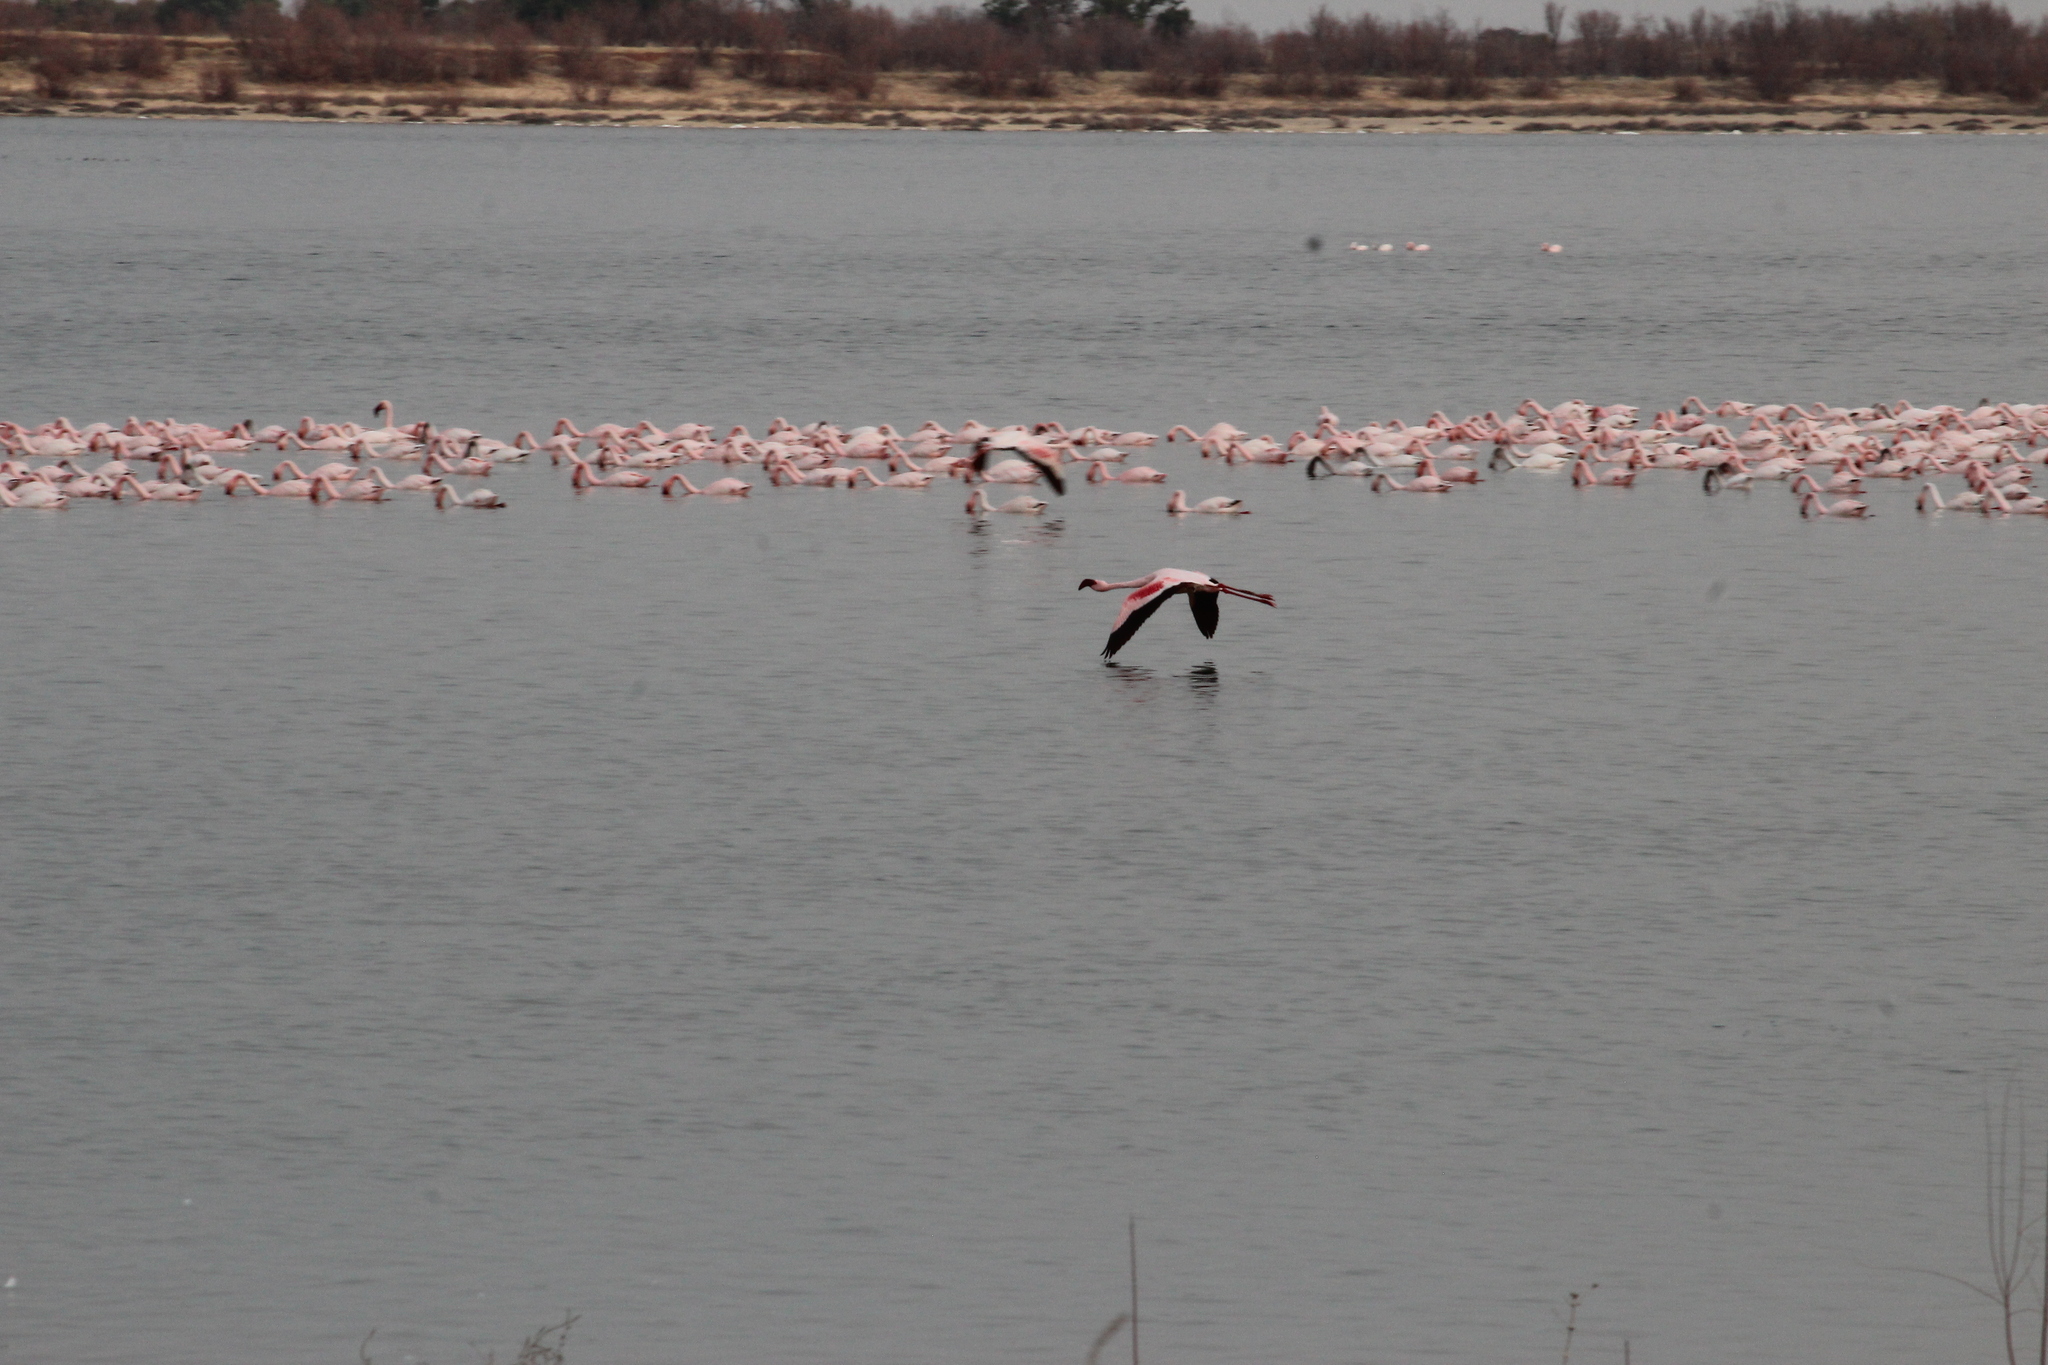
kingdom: Animalia
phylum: Chordata
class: Aves
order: Phoenicopteriformes
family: Phoenicopteridae
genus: Phoeniconaias
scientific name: Phoeniconaias minor
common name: Lesser flamingo
